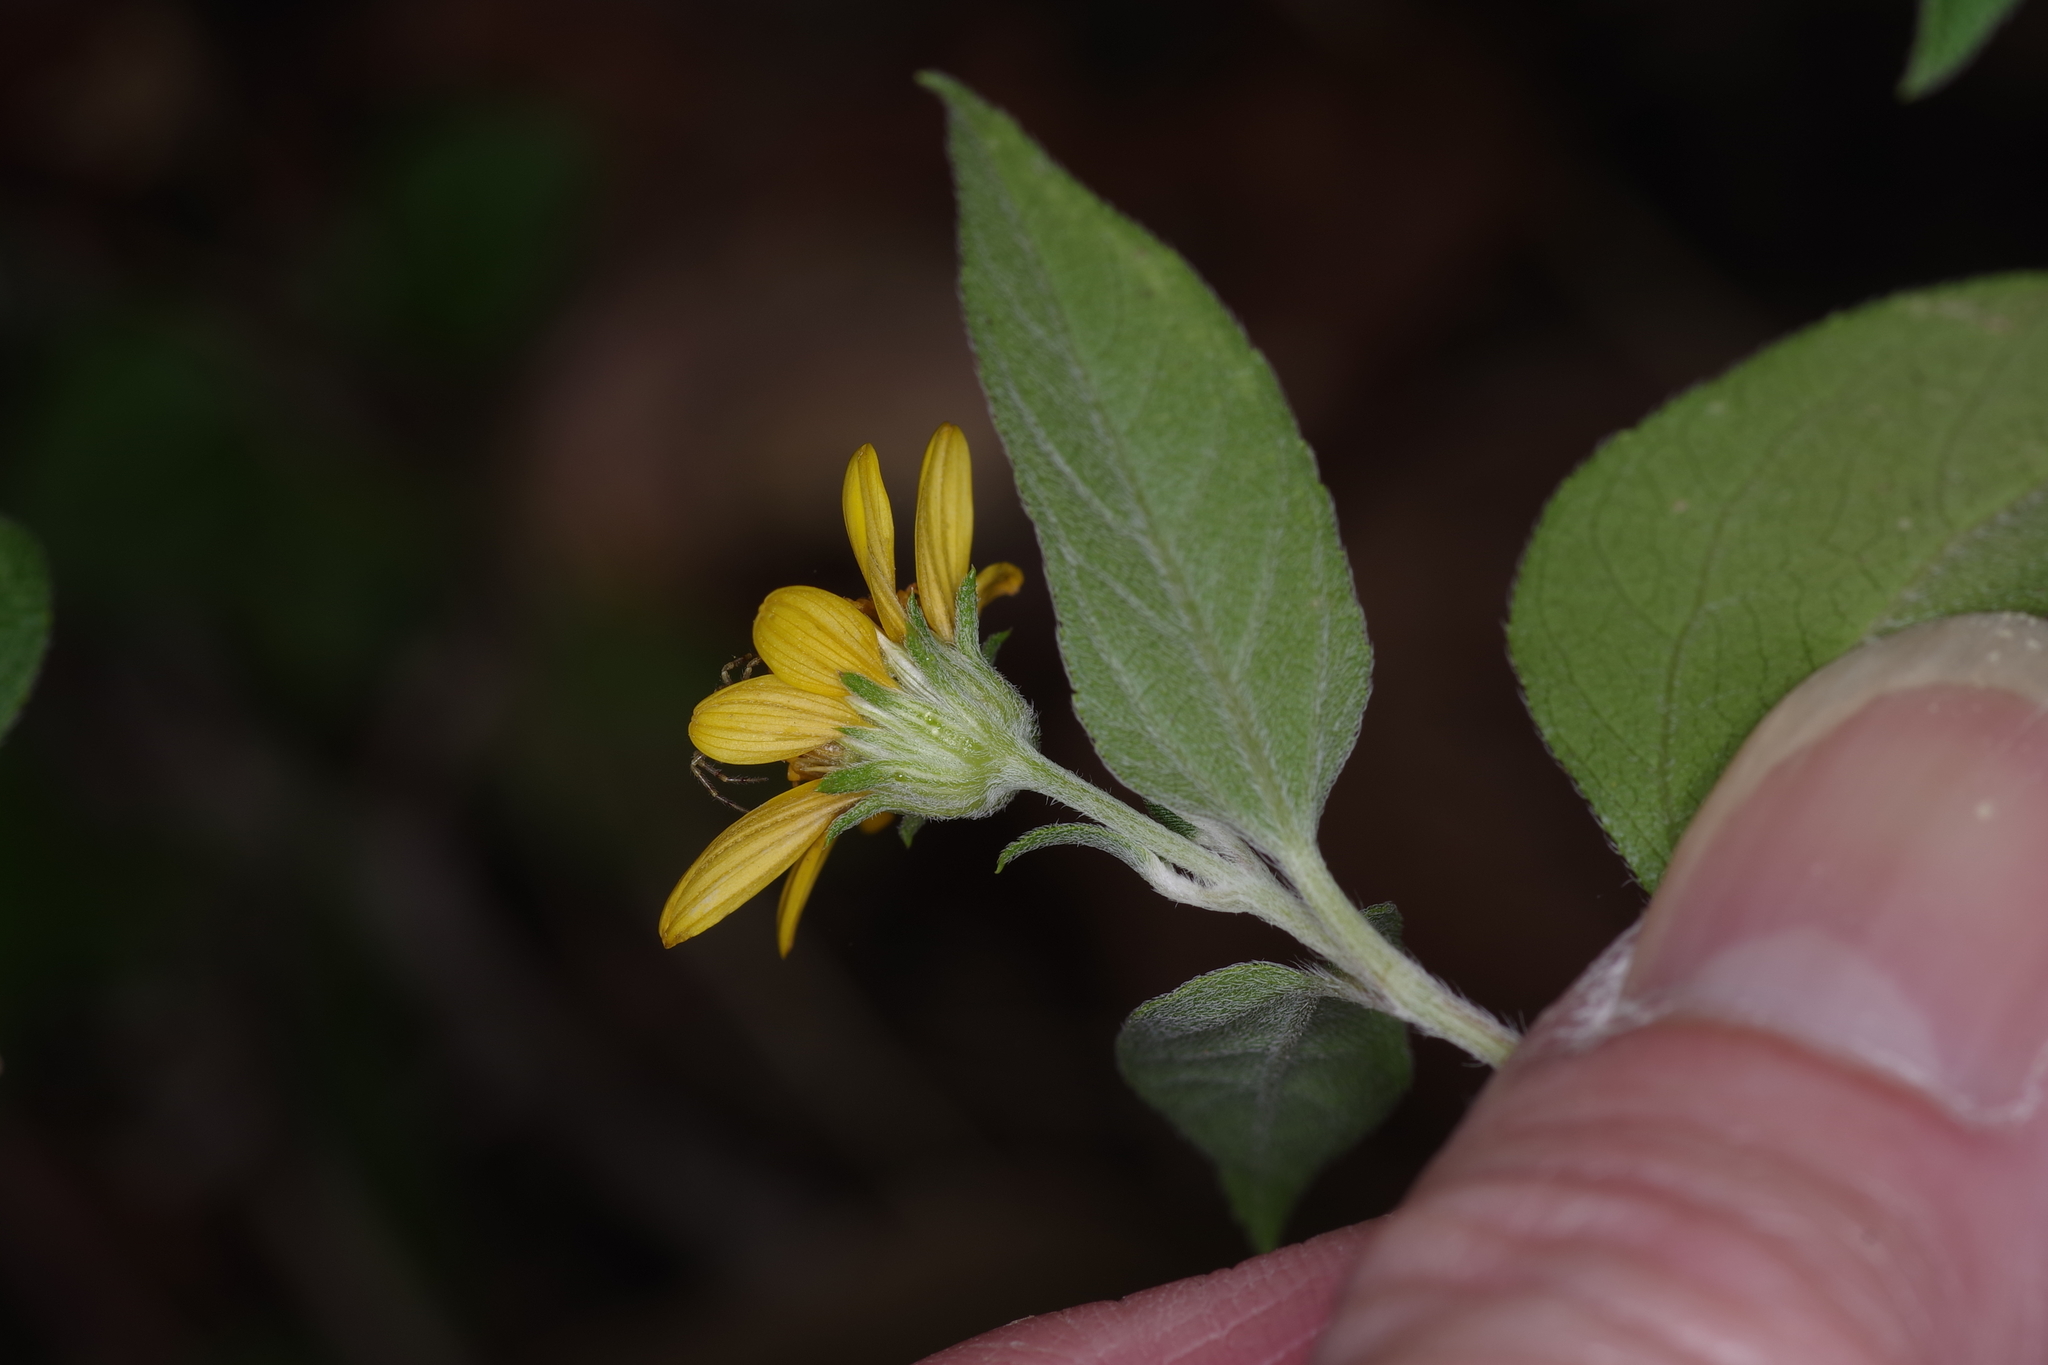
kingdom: Plantae
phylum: Tracheophyta
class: Magnoliopsida
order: Asterales
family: Asteraceae
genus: Viguiera
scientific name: Viguiera dentata
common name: Toothleaf
